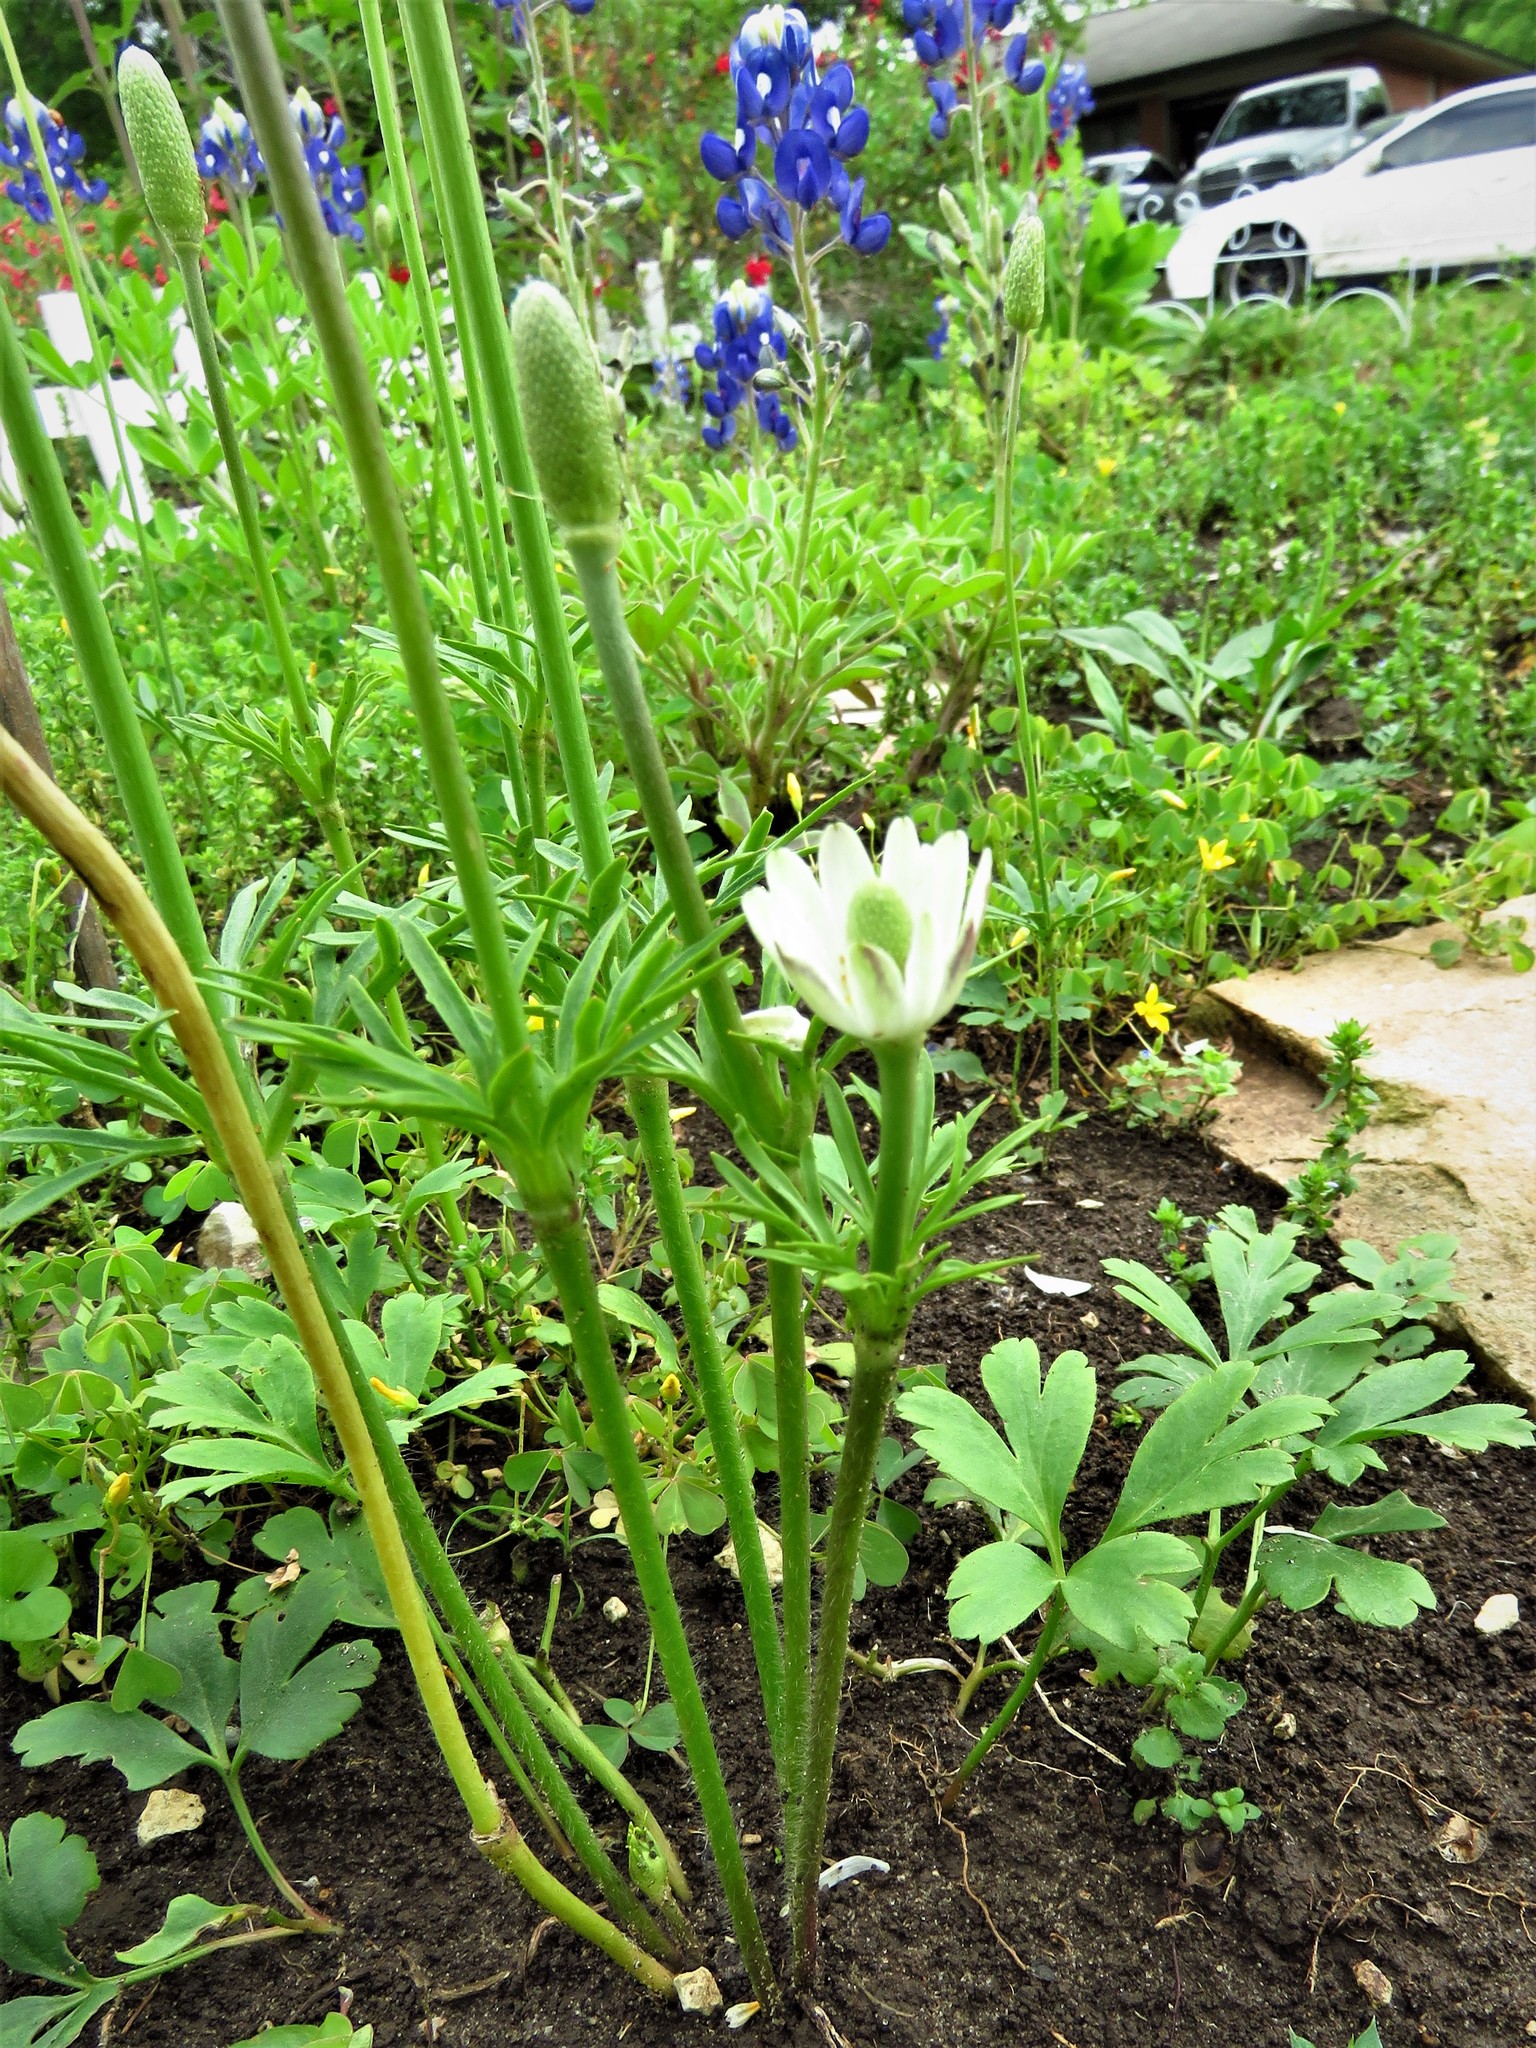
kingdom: Plantae
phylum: Tracheophyta
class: Magnoliopsida
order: Ranunculales
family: Ranunculaceae
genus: Anemone
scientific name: Anemone berlandieri
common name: Ten-petal anemone
